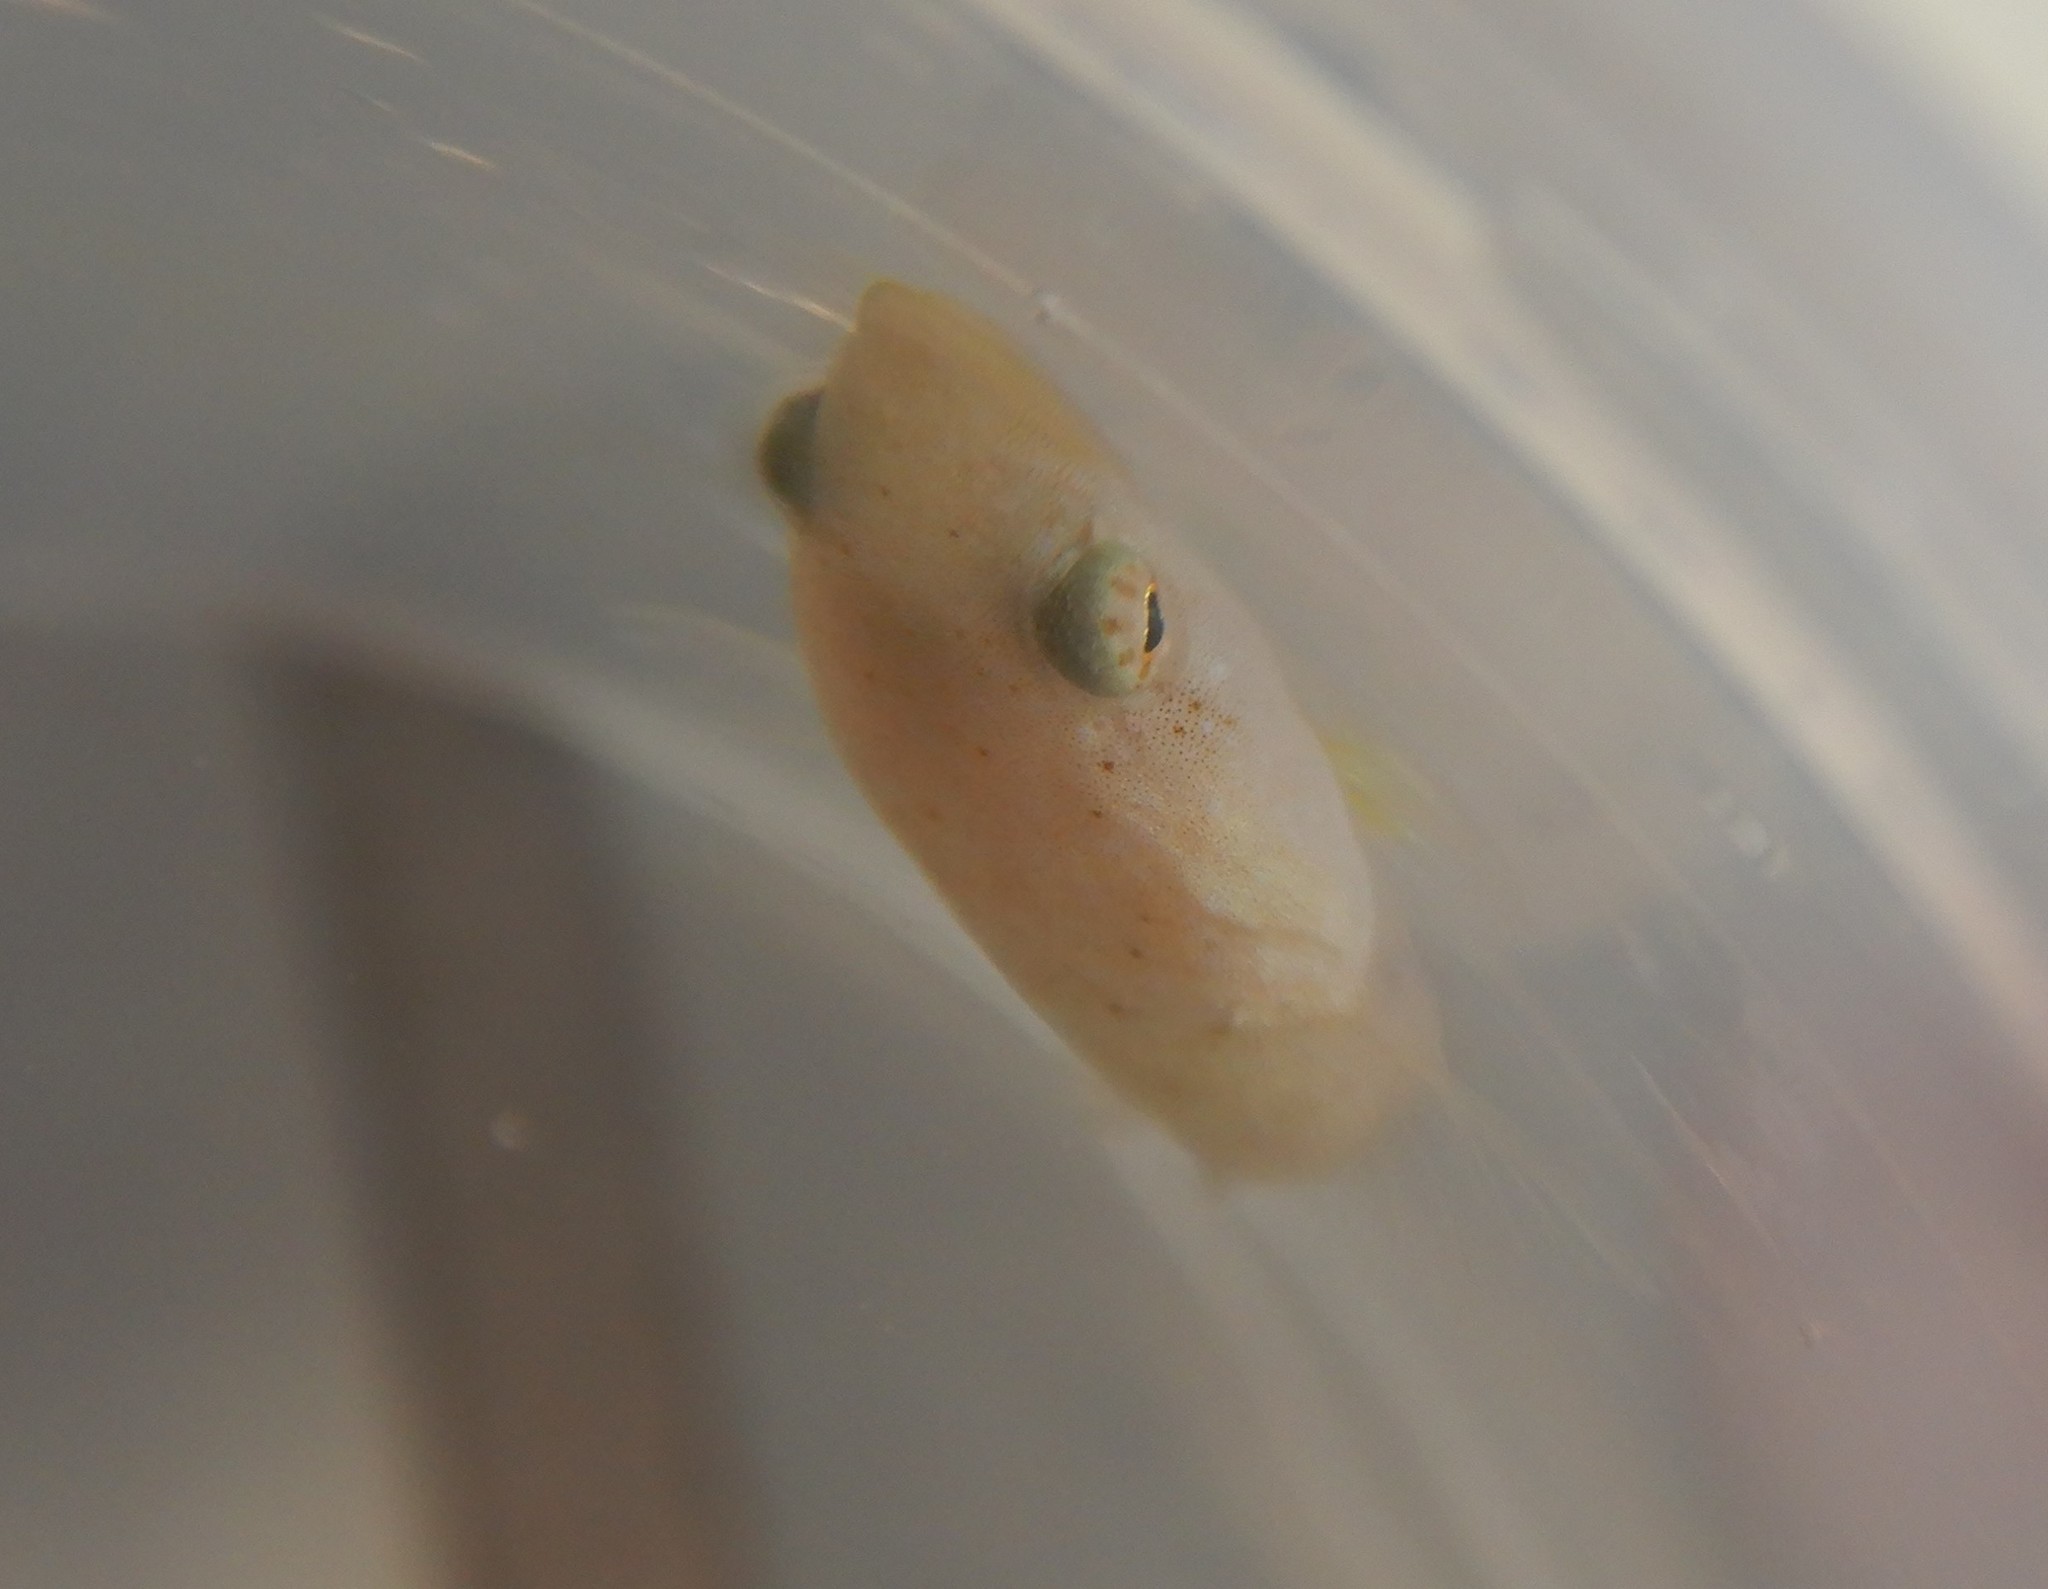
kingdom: Animalia
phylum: Chordata
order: Gobiesociformes
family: Gobiesocidae
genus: Diplecogaster
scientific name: Diplecogaster bimaculata
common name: Two-spotted clingfish
